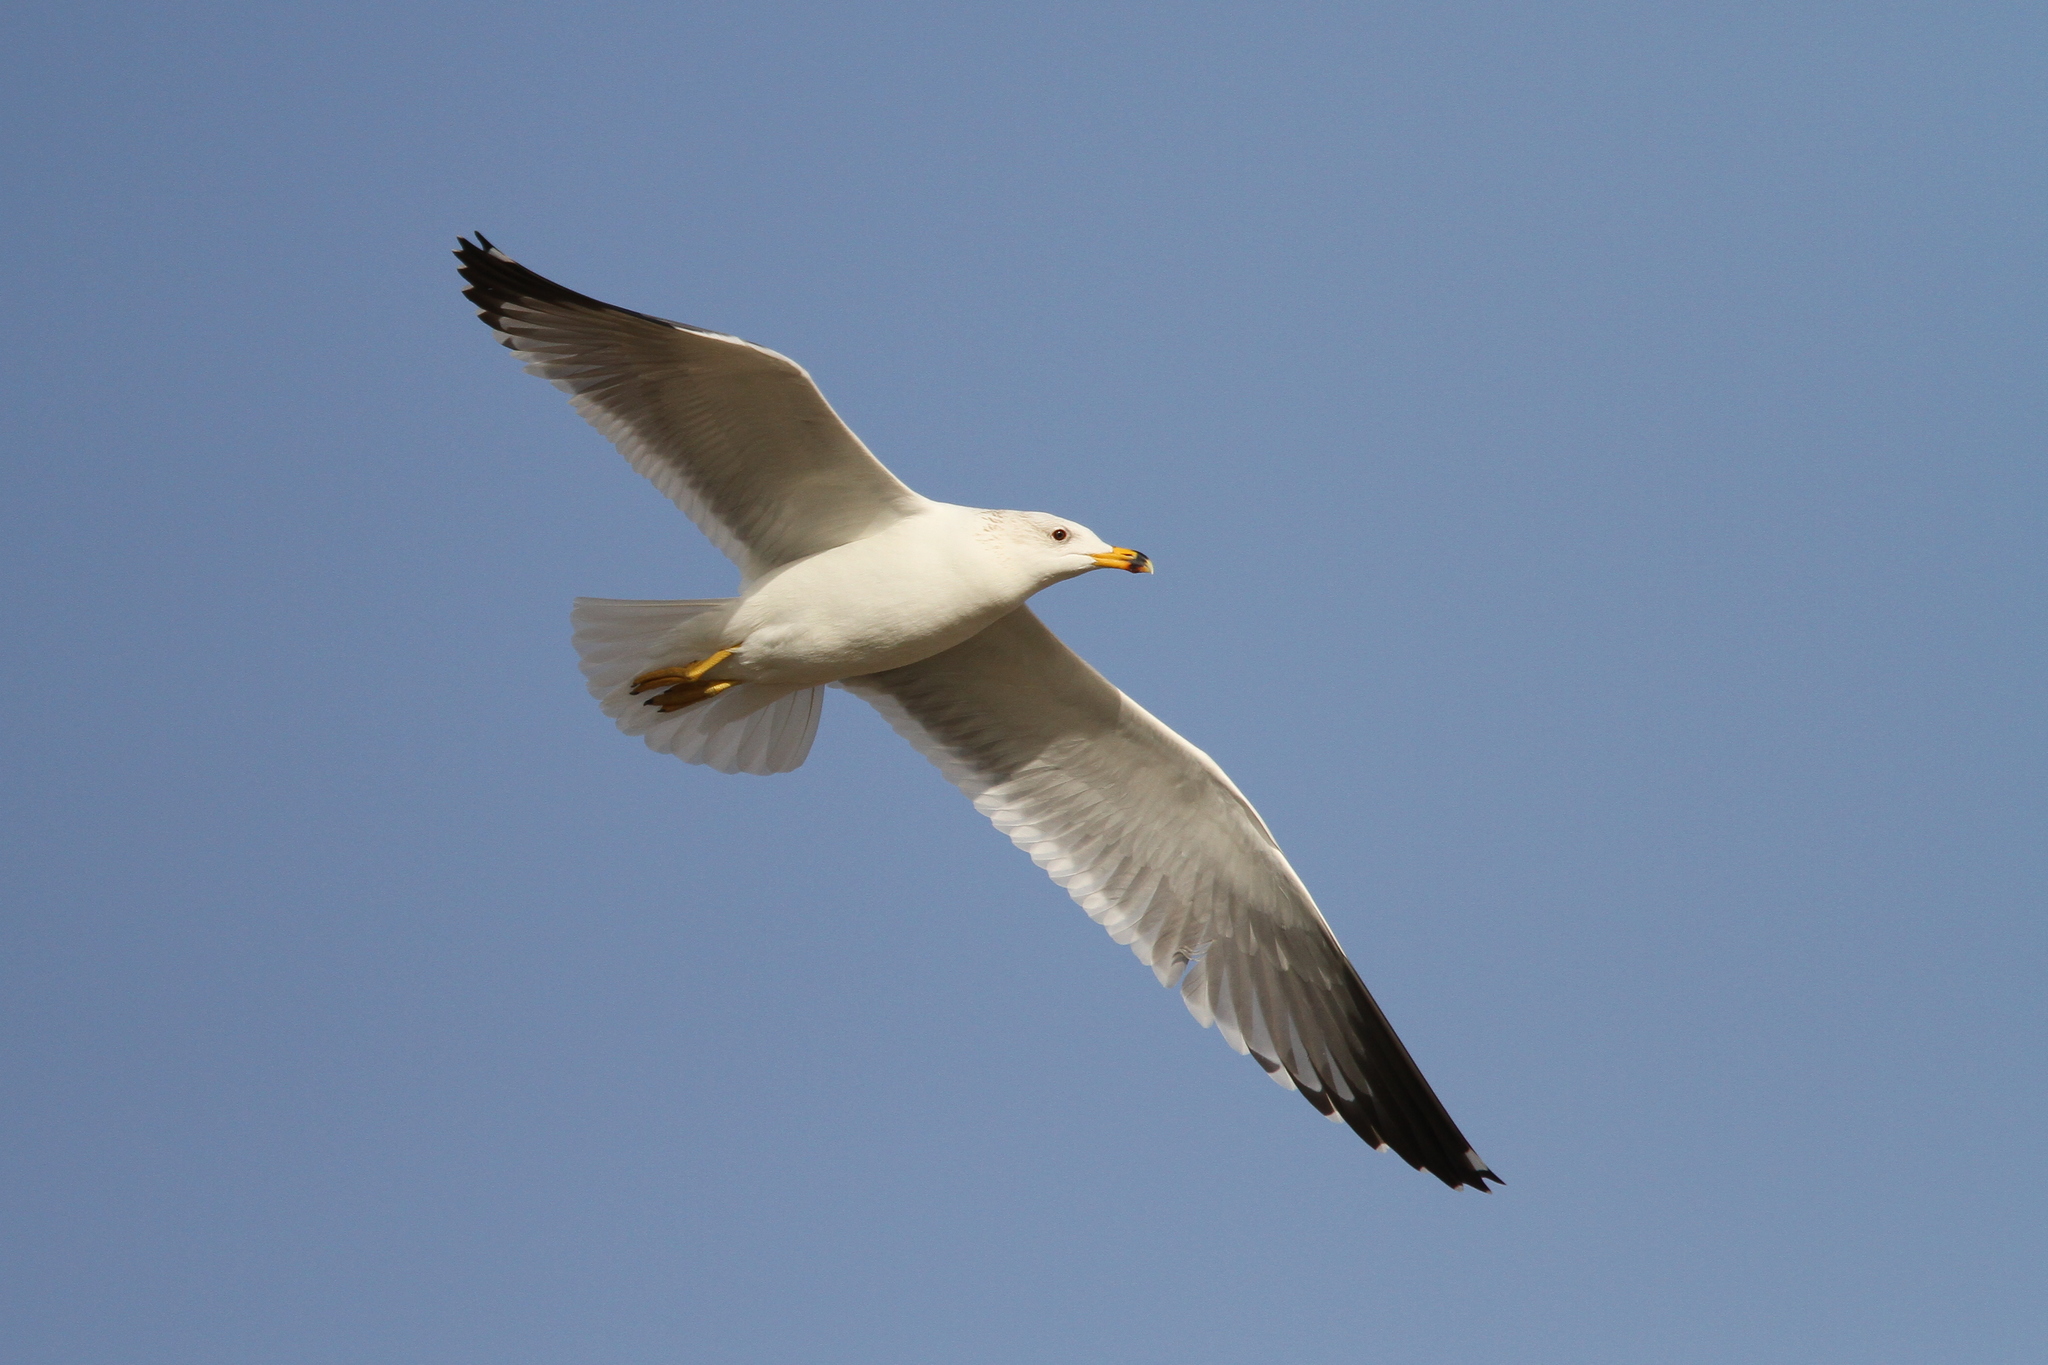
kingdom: Animalia
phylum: Chordata
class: Aves
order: Charadriiformes
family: Laridae
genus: Larus
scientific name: Larus armenicus
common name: Armenian gull
